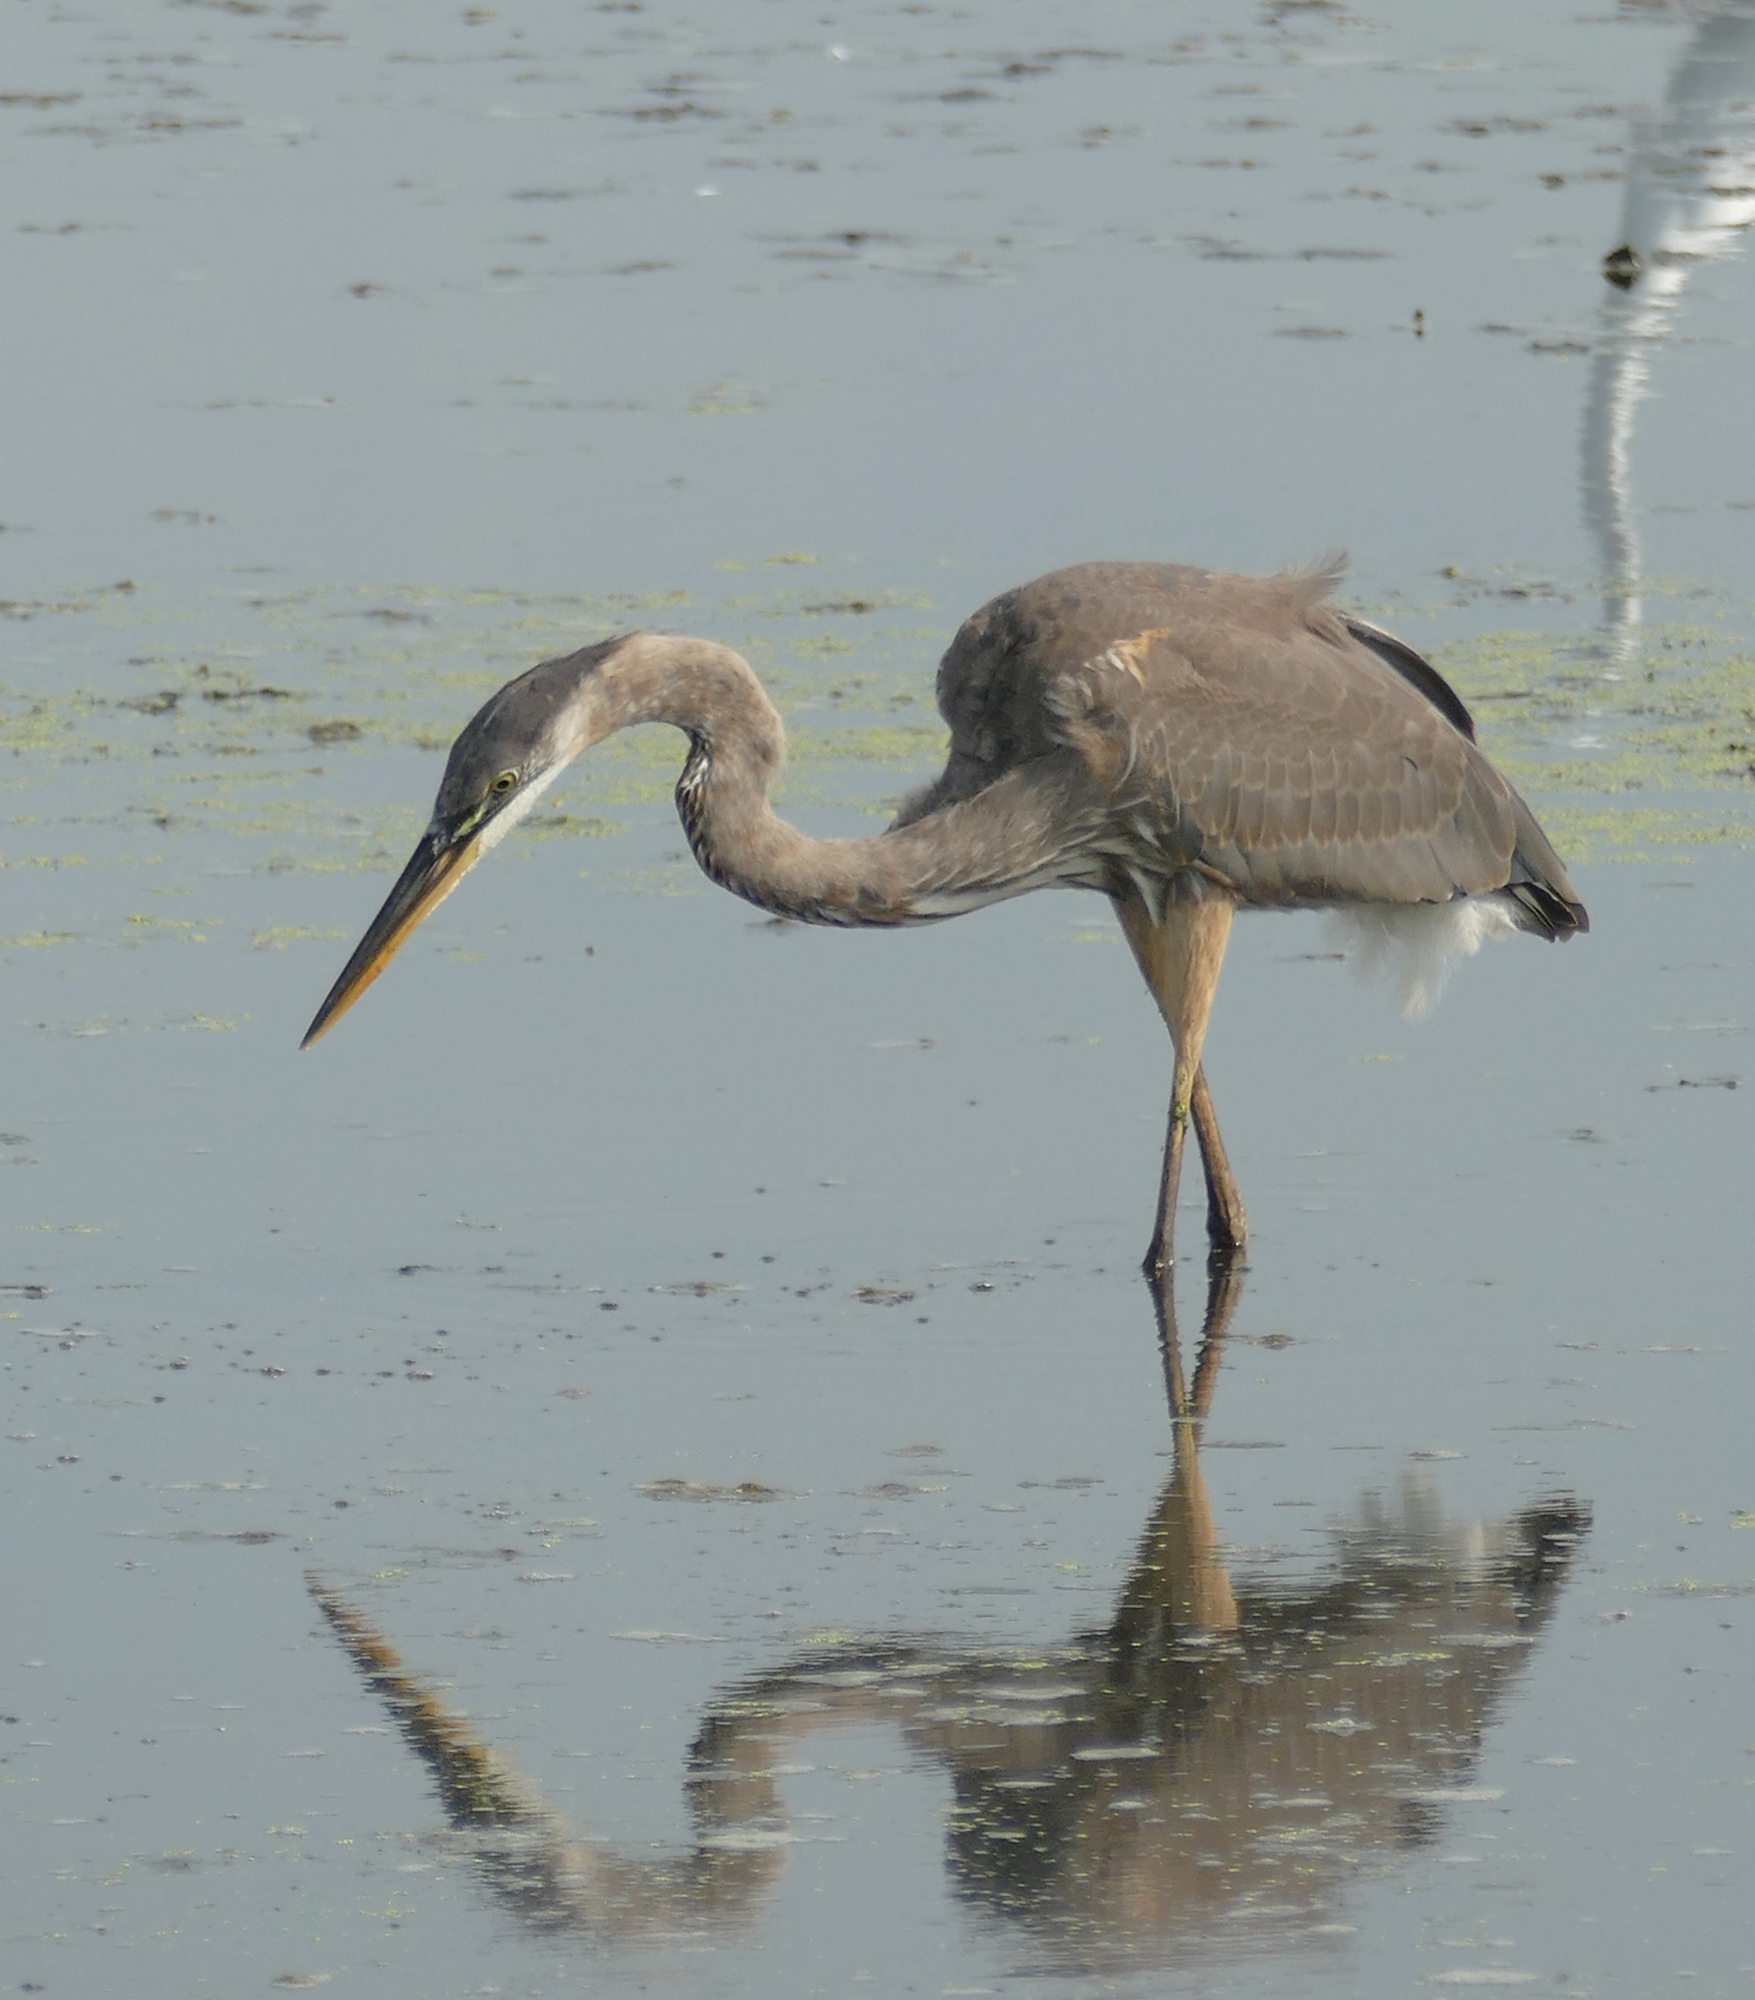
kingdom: Animalia
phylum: Chordata
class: Aves
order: Pelecaniformes
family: Ardeidae
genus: Ardea
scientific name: Ardea herodias
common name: Great blue heron
